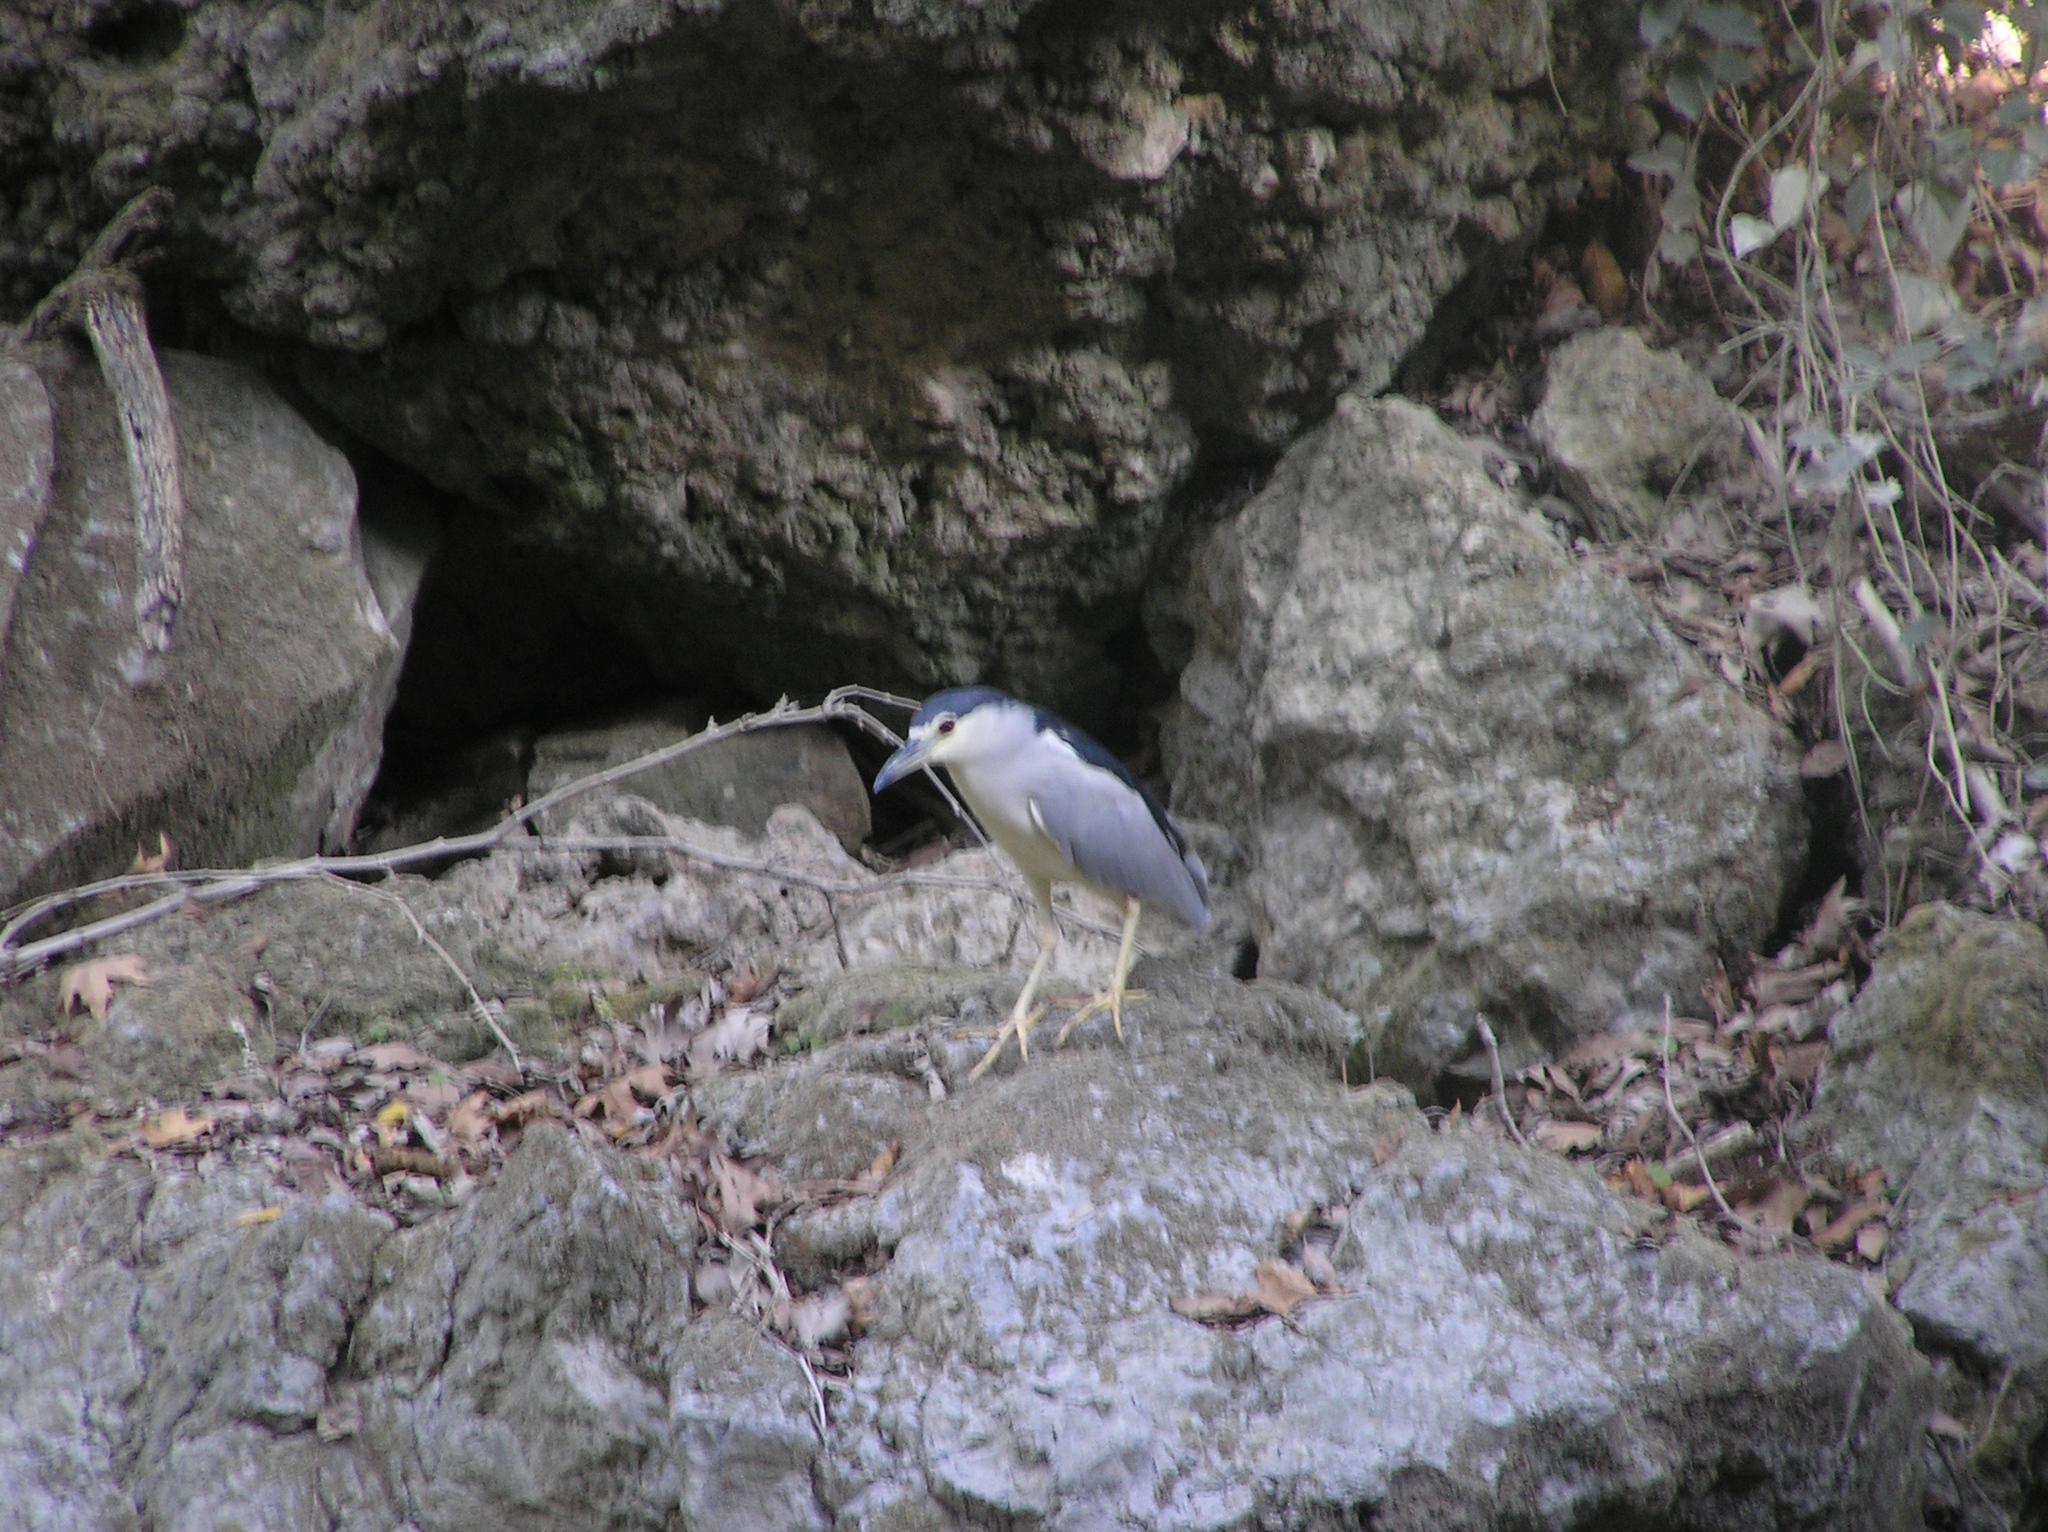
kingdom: Animalia
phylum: Chordata
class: Aves
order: Pelecaniformes
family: Ardeidae
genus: Nycticorax
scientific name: Nycticorax nycticorax
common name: Black-crowned night heron
